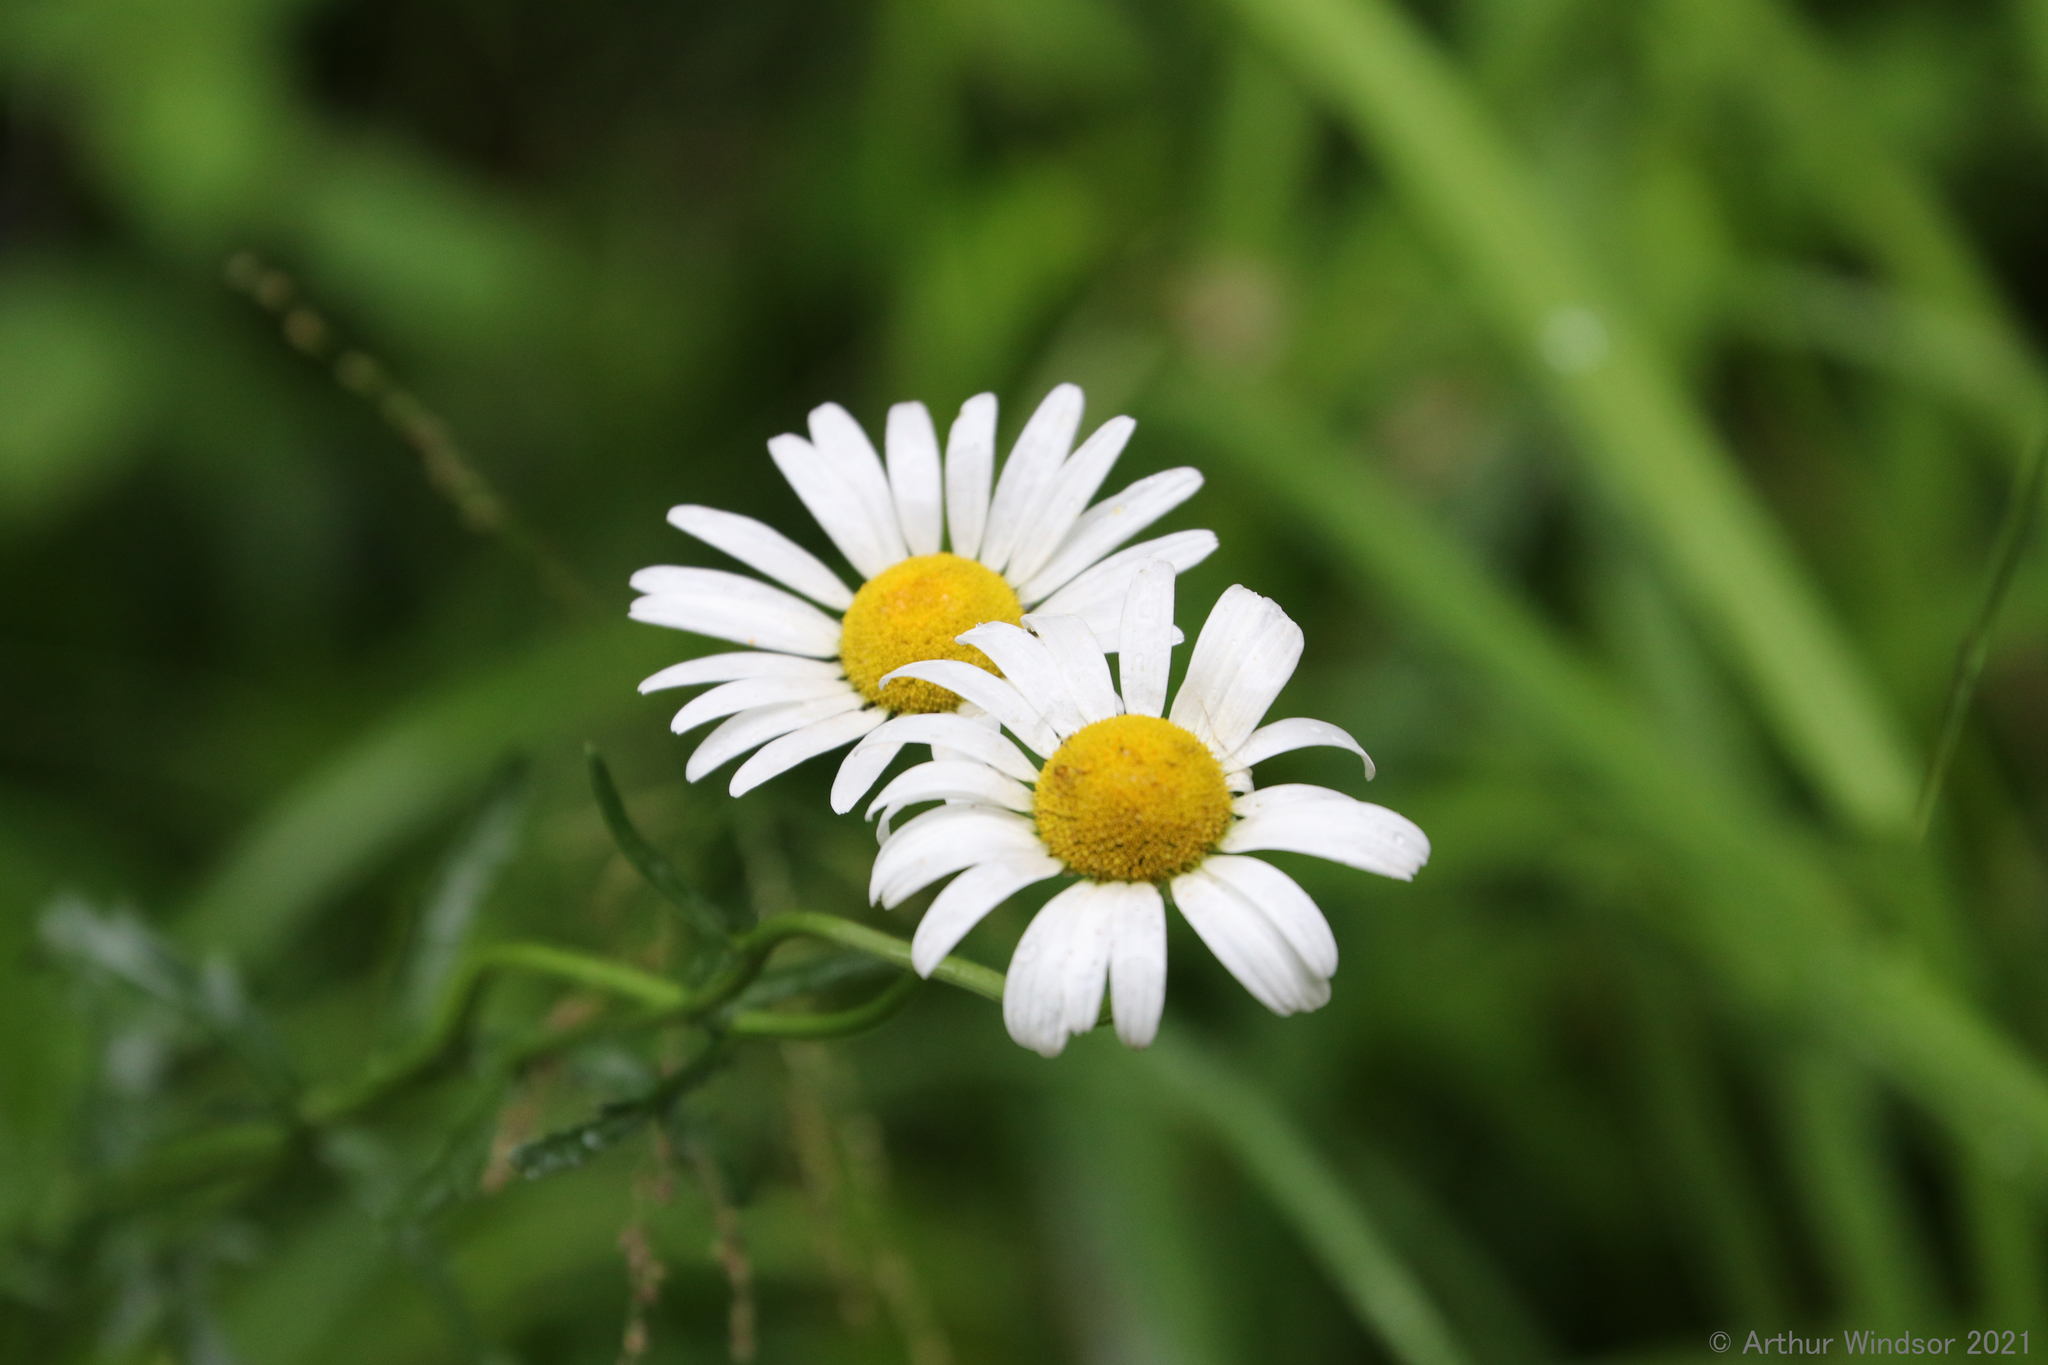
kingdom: Plantae
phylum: Tracheophyta
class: Magnoliopsida
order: Asterales
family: Asteraceae
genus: Leucanthemum
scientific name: Leucanthemum vulgare
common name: Oxeye daisy
